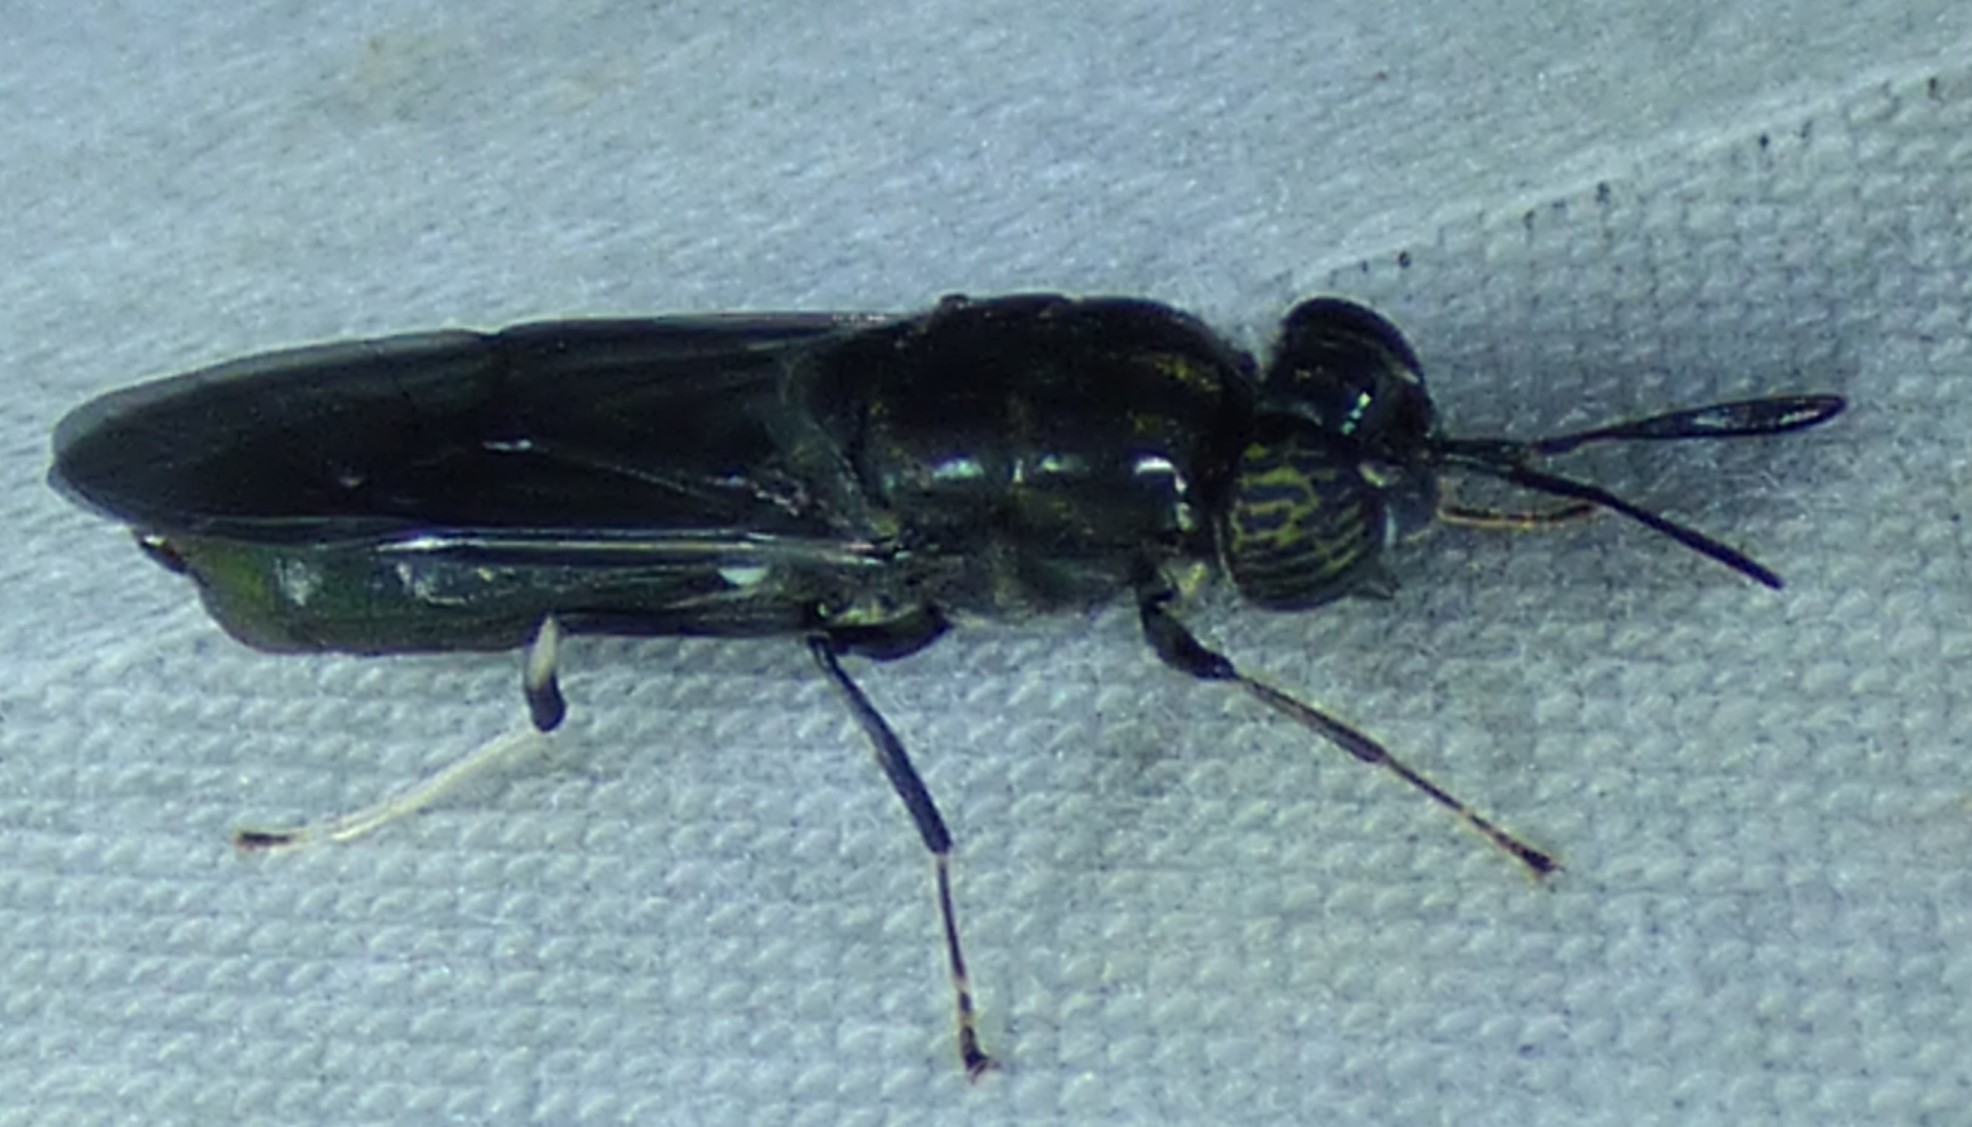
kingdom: Animalia
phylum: Arthropoda
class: Insecta
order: Diptera
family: Stratiomyidae
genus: Hermetia
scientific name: Hermetia illucens
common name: Black soldier fly
